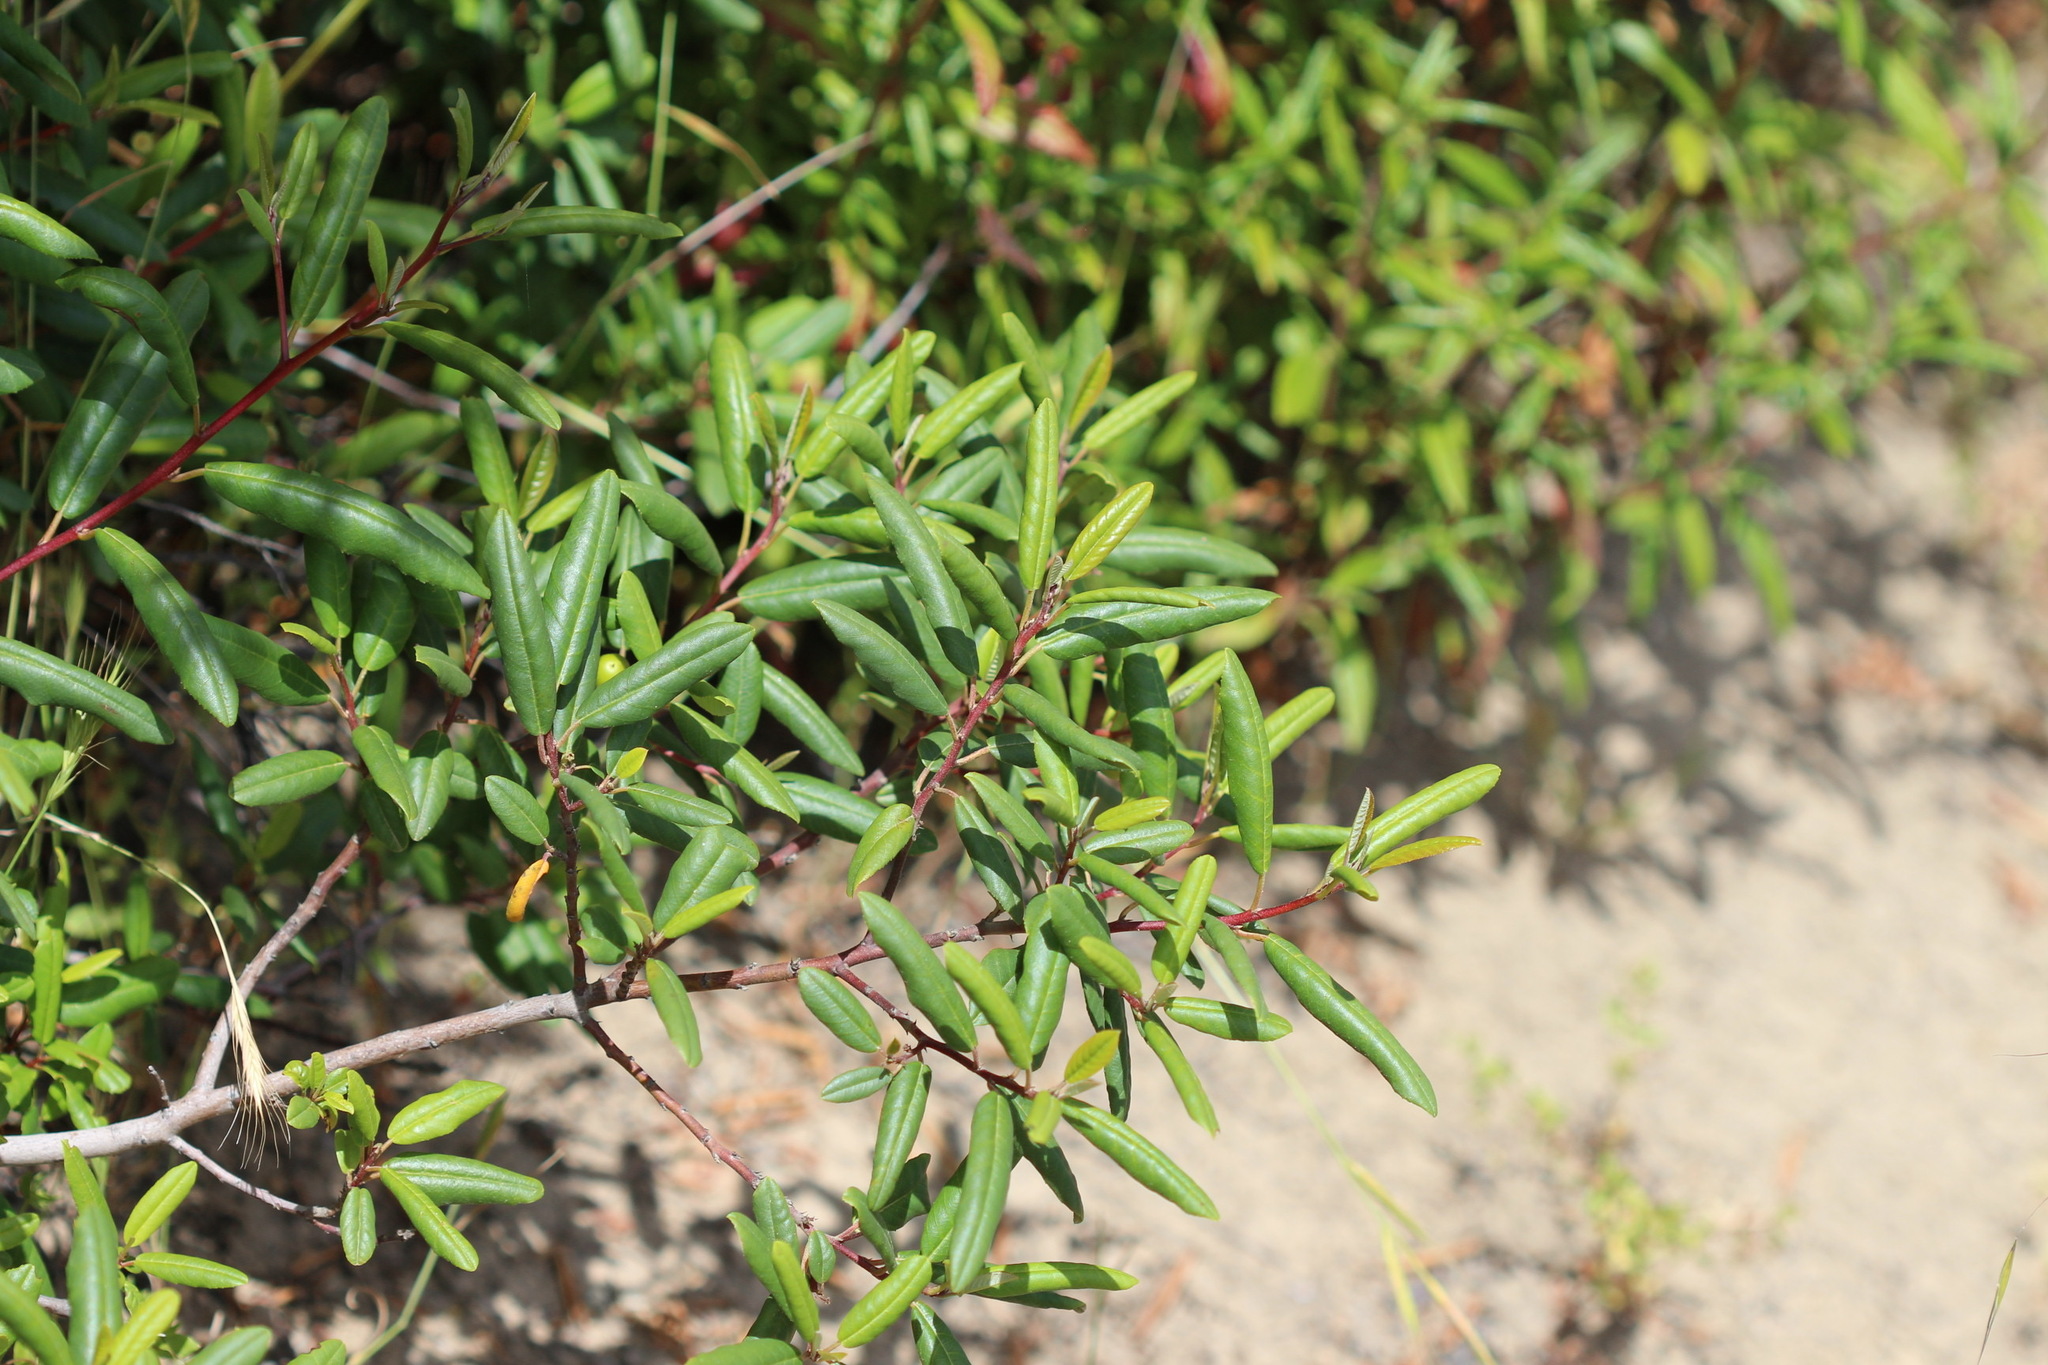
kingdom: Plantae
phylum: Tracheophyta
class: Magnoliopsida
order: Rosales
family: Rhamnaceae
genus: Frangula
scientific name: Frangula californica
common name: California buckthorn
